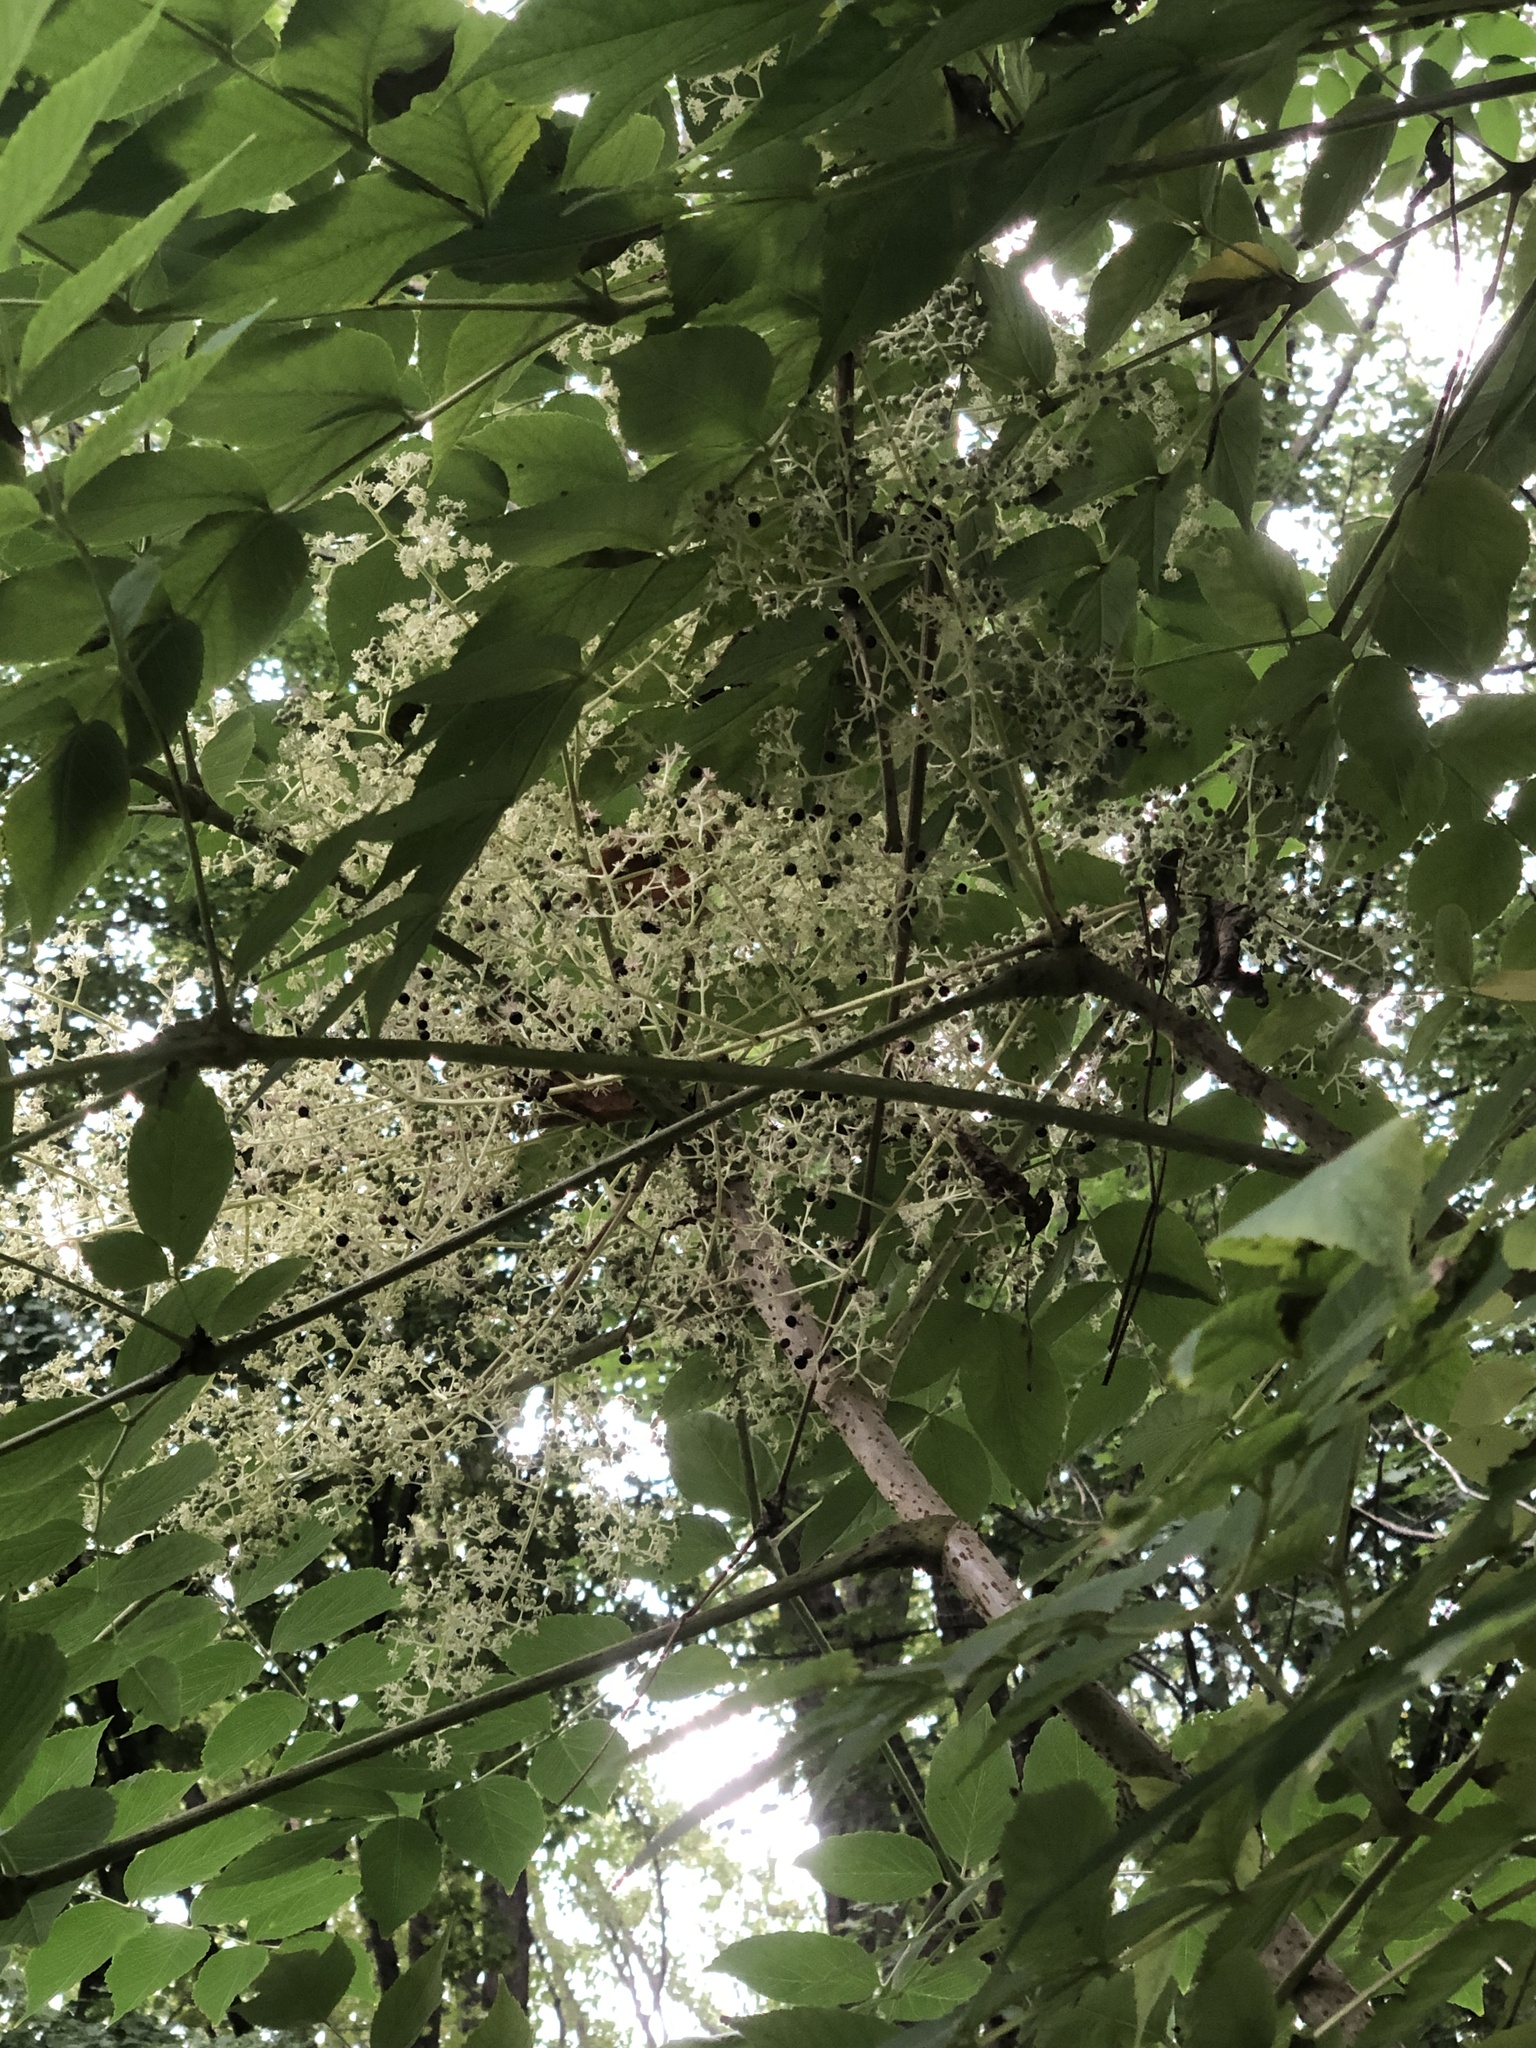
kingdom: Plantae
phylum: Tracheophyta
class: Magnoliopsida
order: Apiales
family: Araliaceae
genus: Aralia
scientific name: Aralia elata
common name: Japanese angelica-tree
